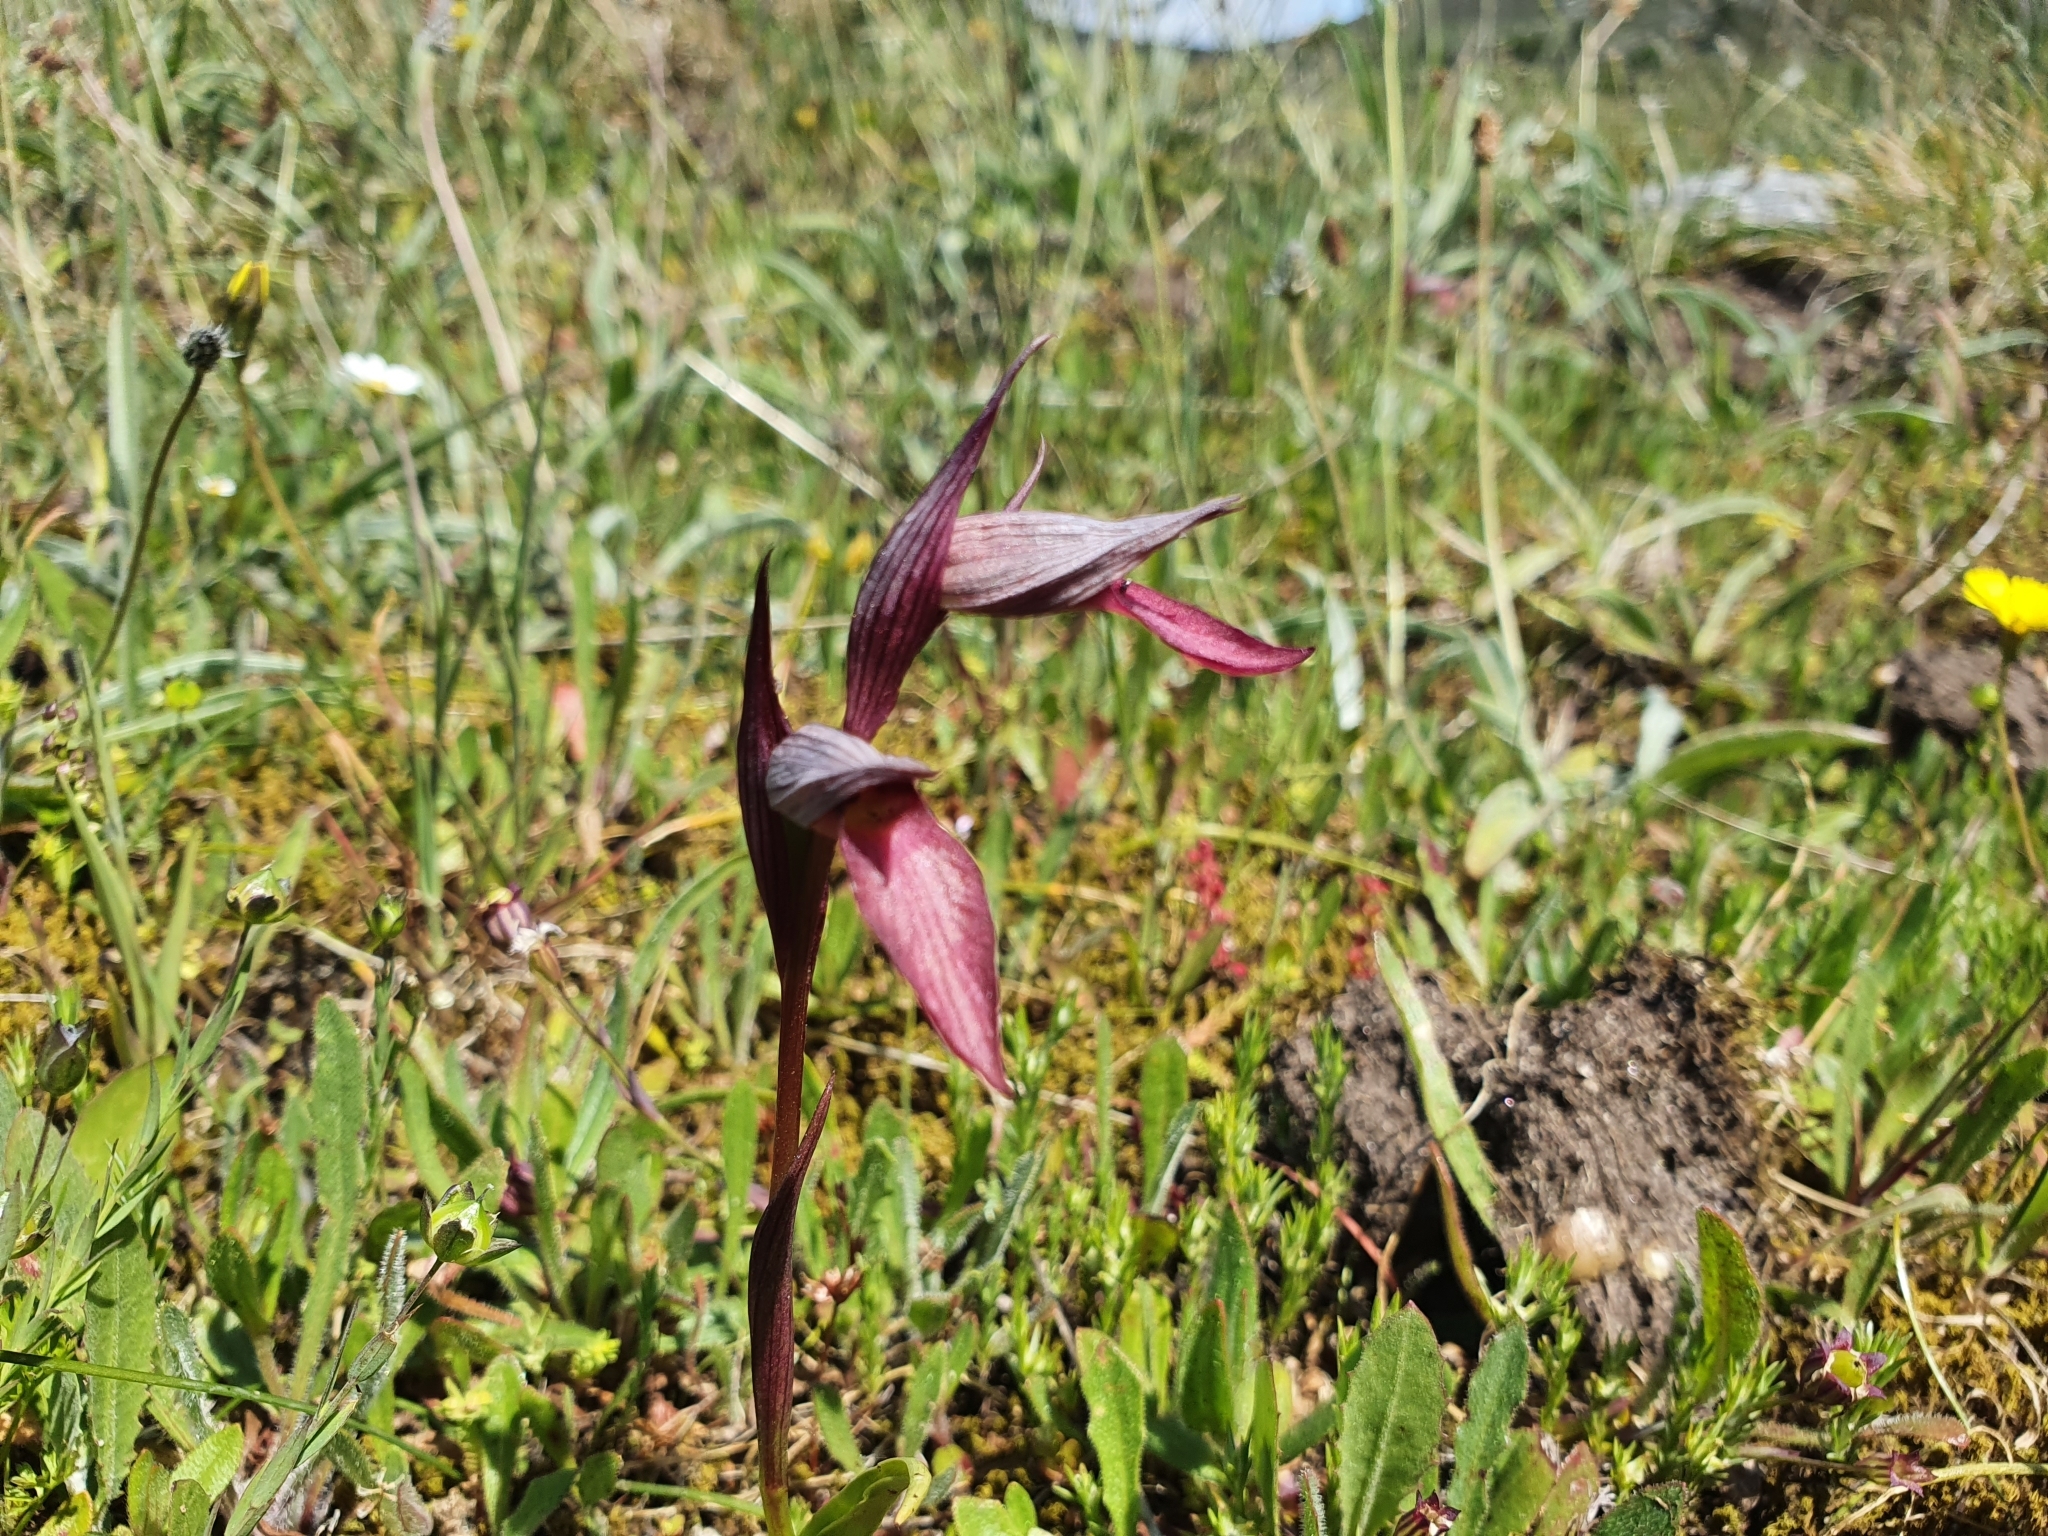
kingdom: Plantae
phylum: Tracheophyta
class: Liliopsida
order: Asparagales
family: Orchidaceae
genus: Serapias
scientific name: Serapias lingua
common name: Tongue-orchid
